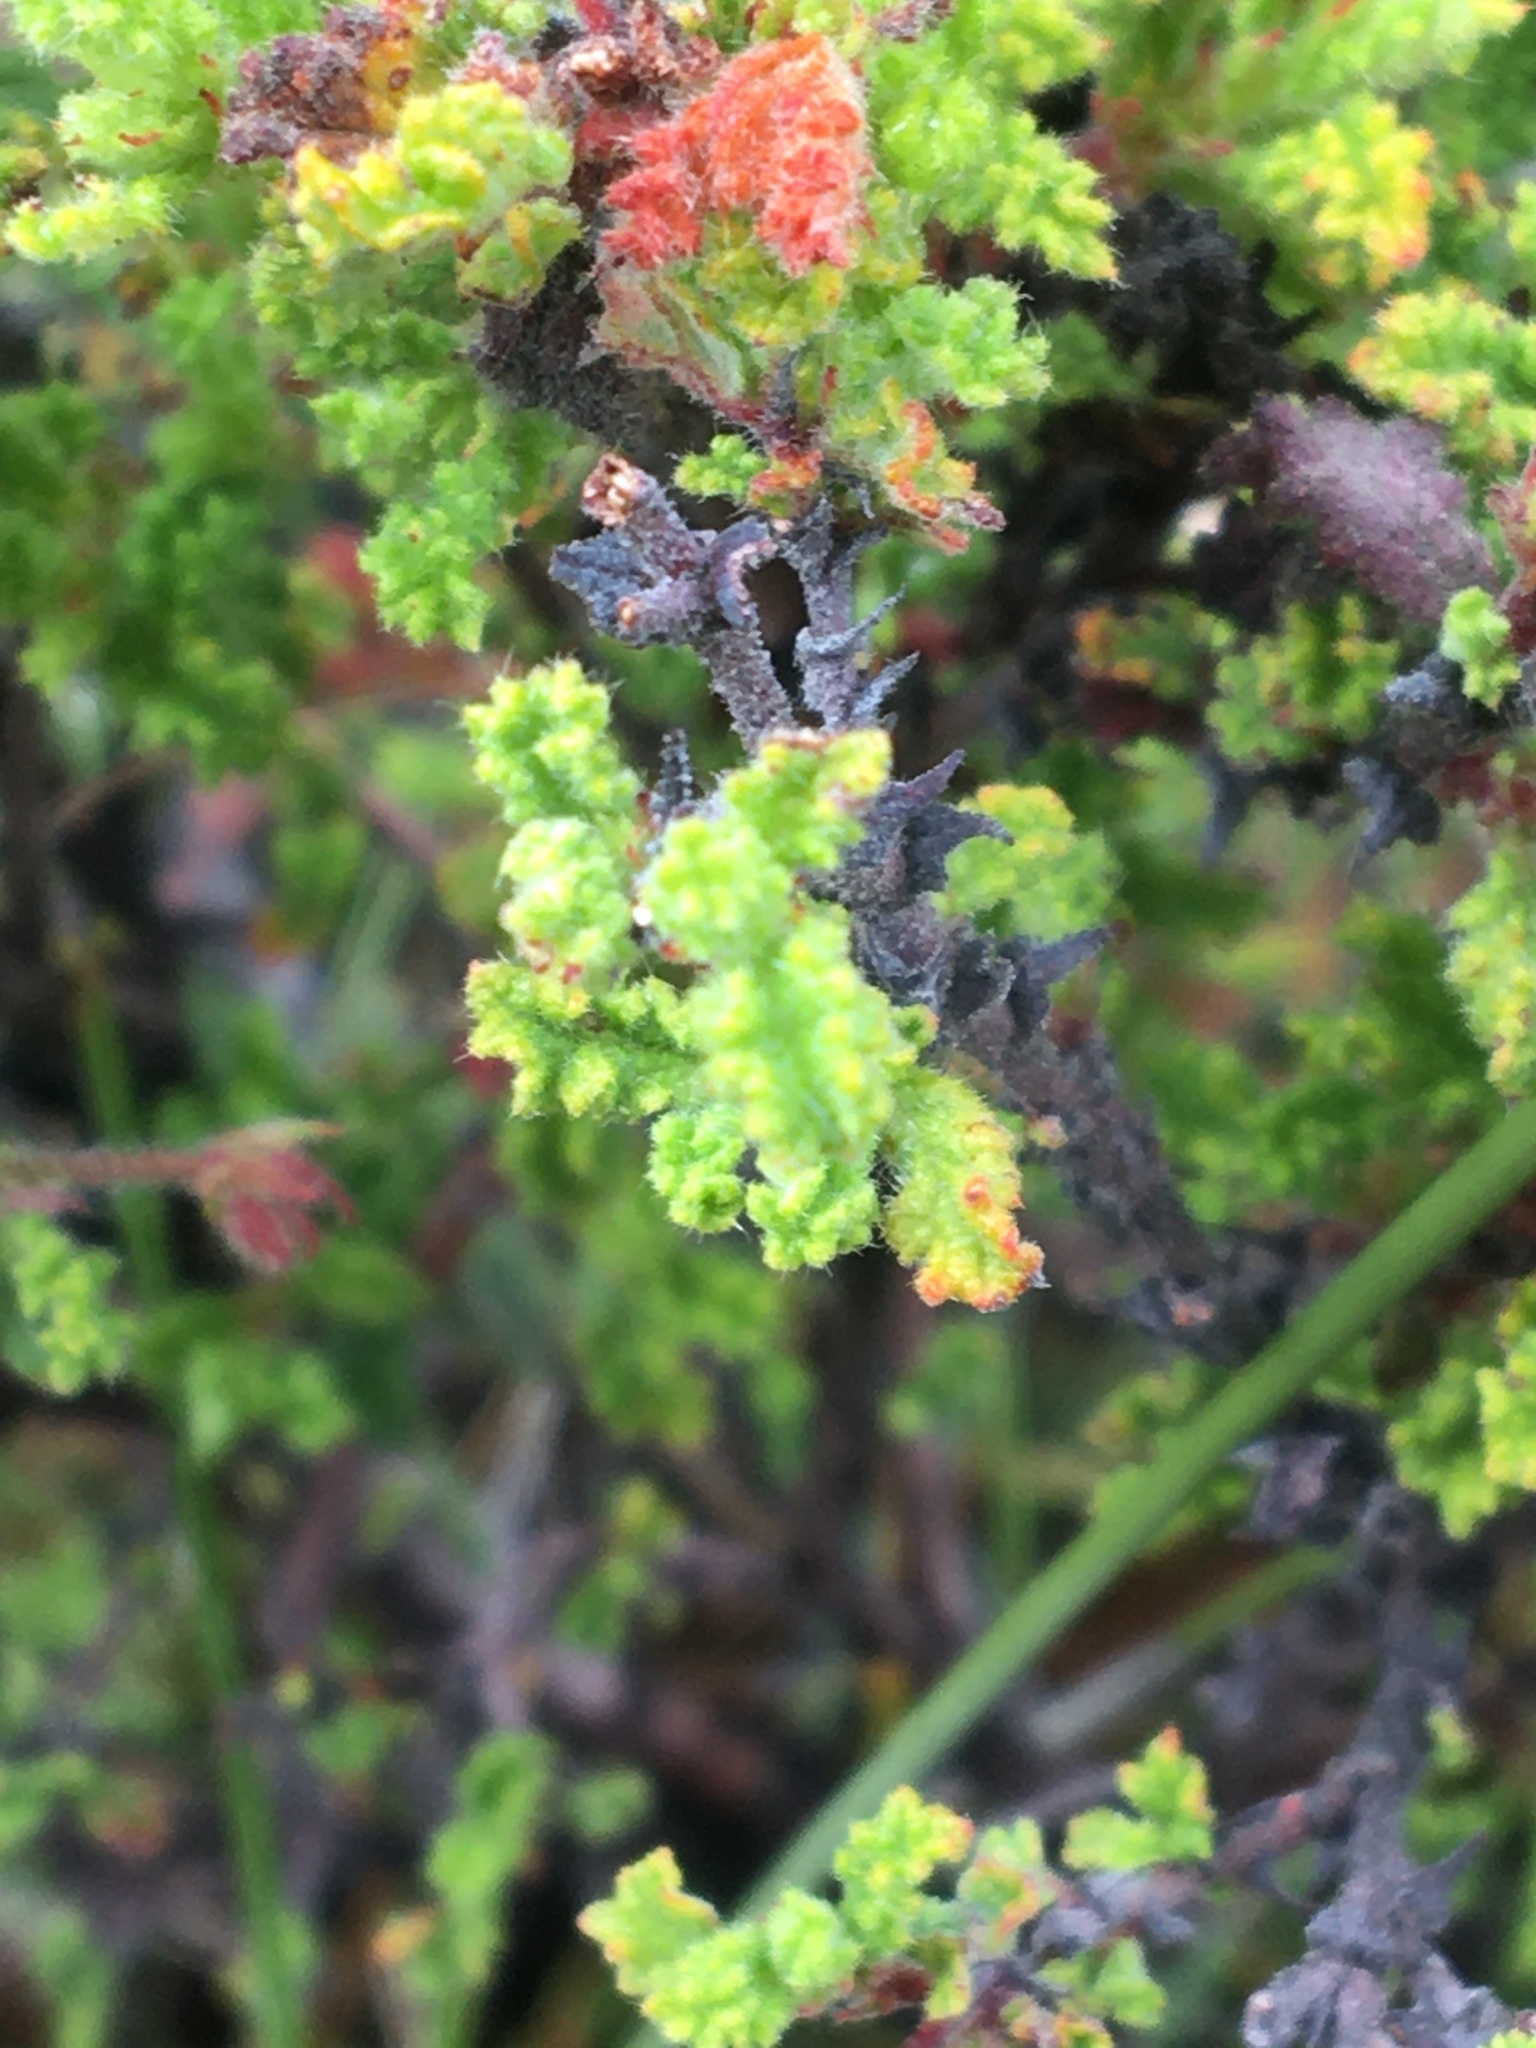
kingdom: Plantae
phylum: Tracheophyta
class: Magnoliopsida
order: Geraniales
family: Geraniaceae
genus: Pelargonium
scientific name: Pelargonium alternans
